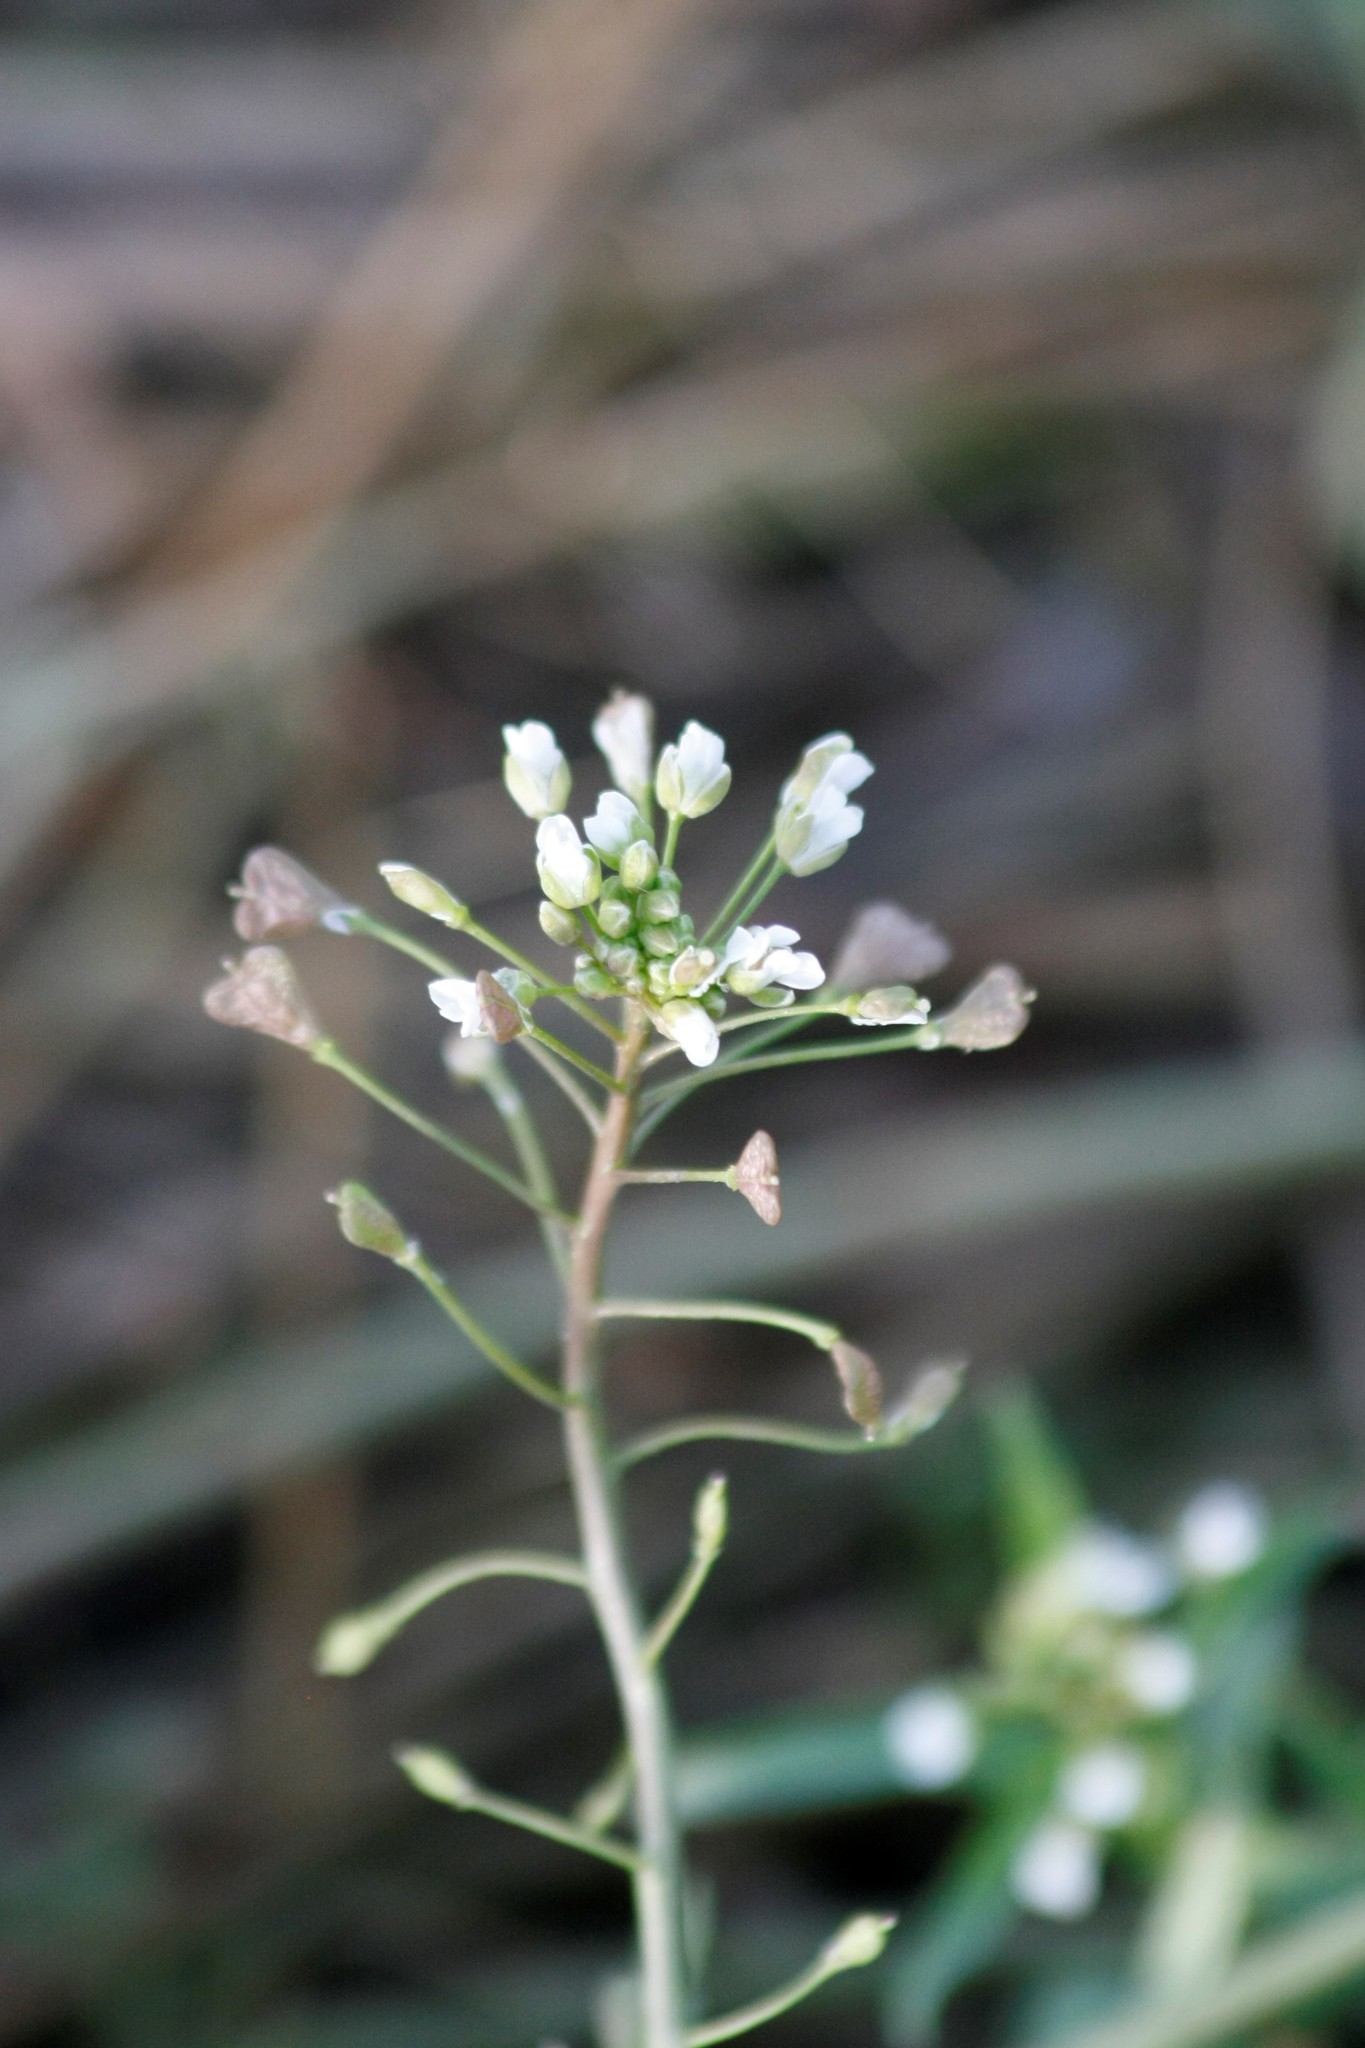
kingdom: Plantae
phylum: Tracheophyta
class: Magnoliopsida
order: Brassicales
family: Brassicaceae
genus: Capsella
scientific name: Capsella bursa-pastoris
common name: Shepherd's purse
